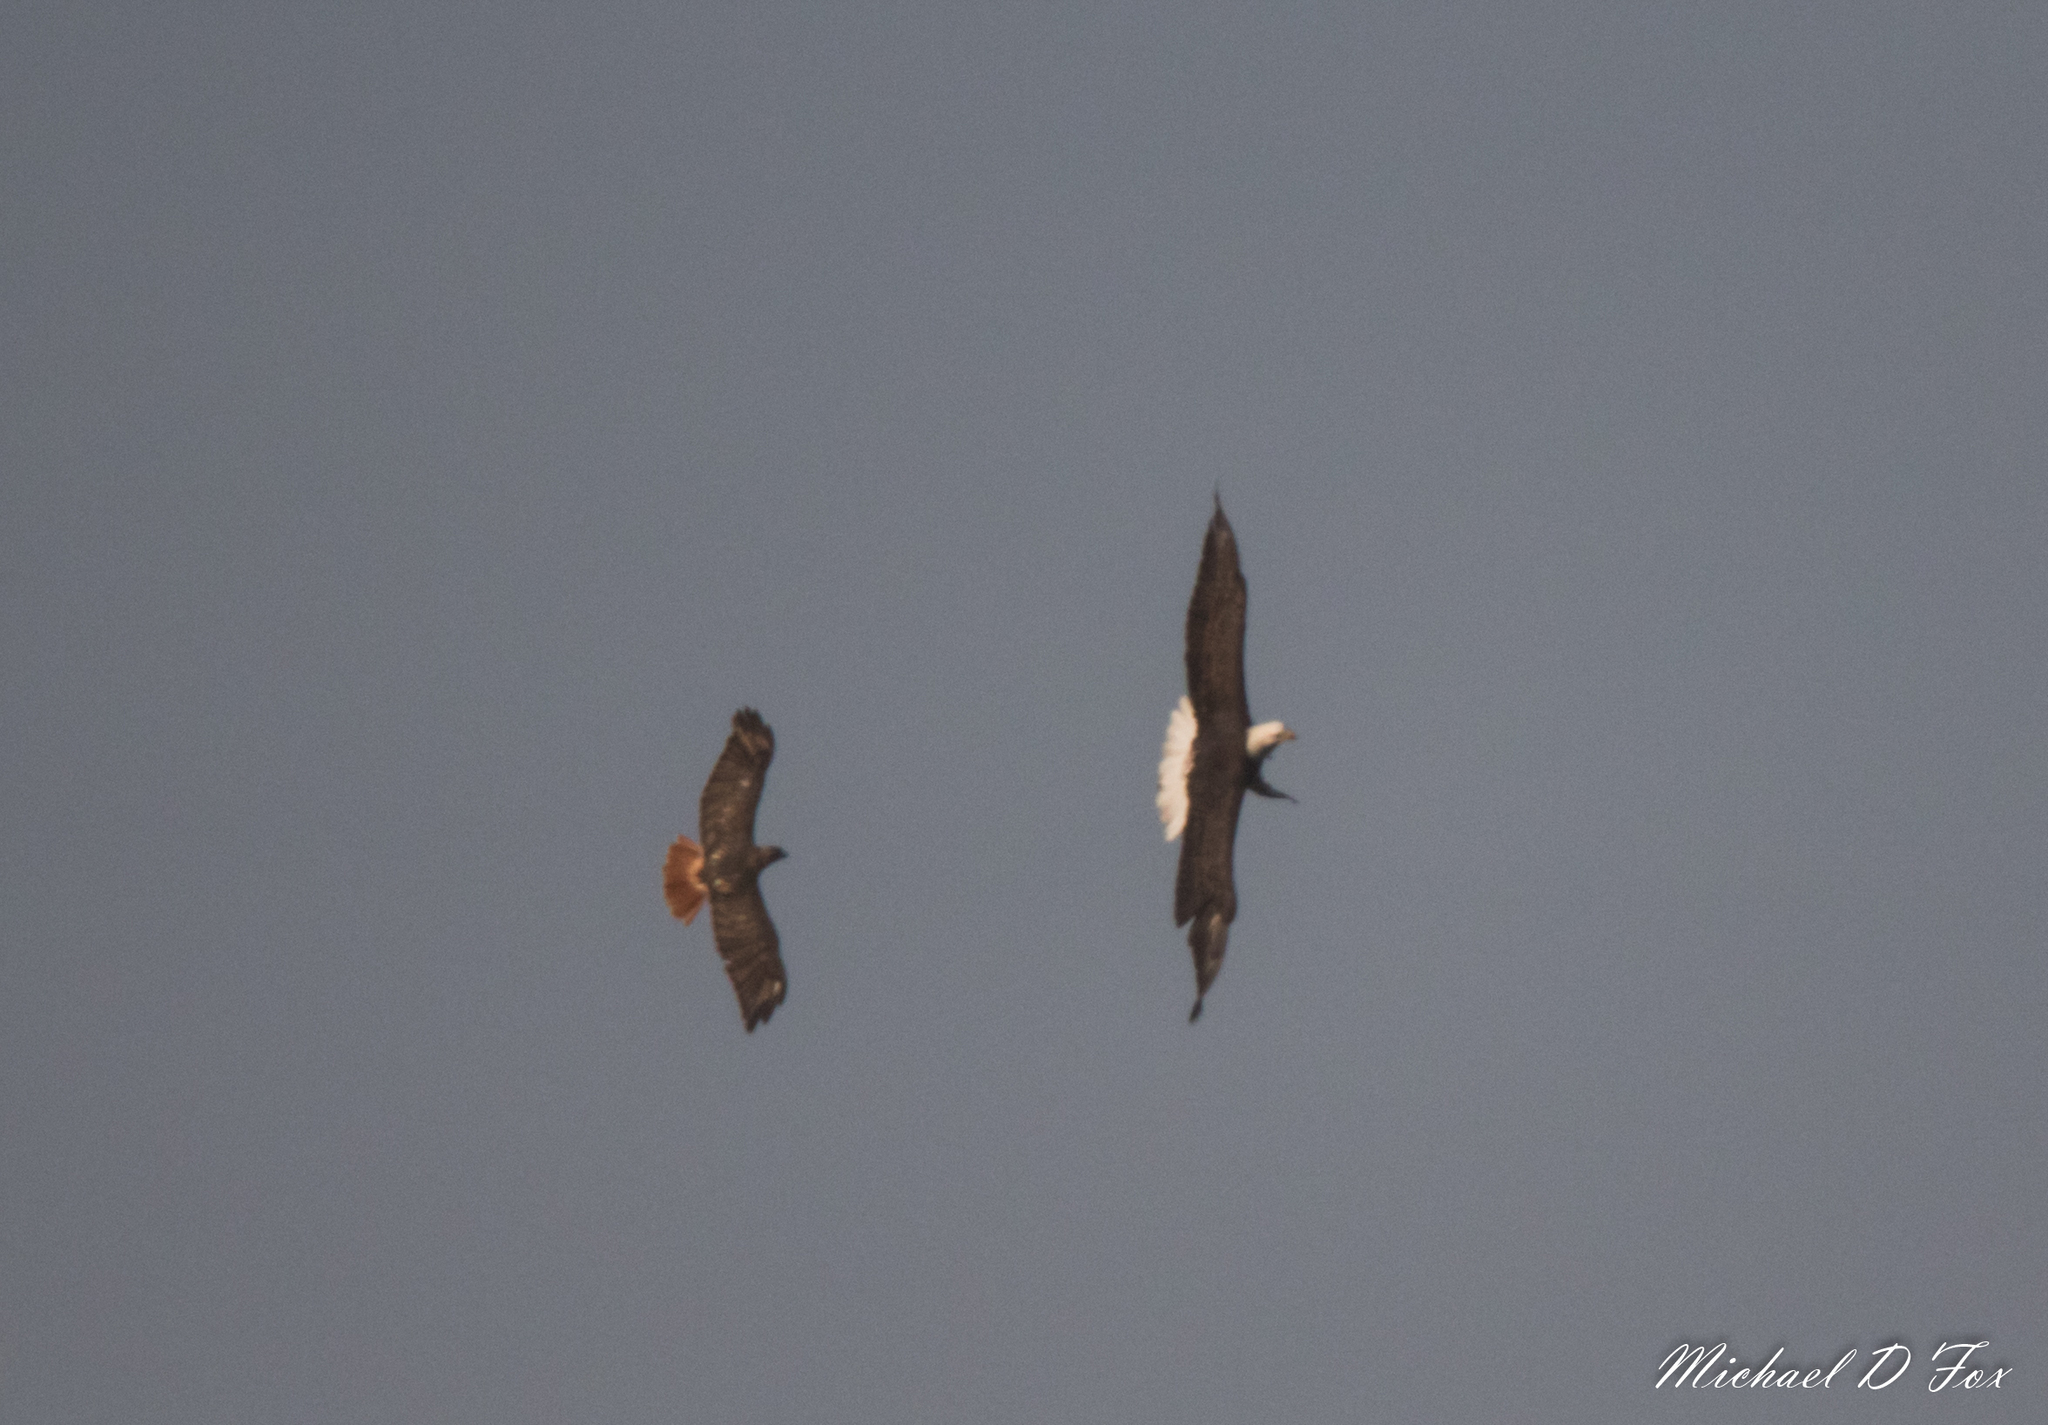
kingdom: Animalia
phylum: Chordata
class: Aves
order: Accipitriformes
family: Accipitridae
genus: Buteo
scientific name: Buteo jamaicensis
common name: Red-tailed hawk
